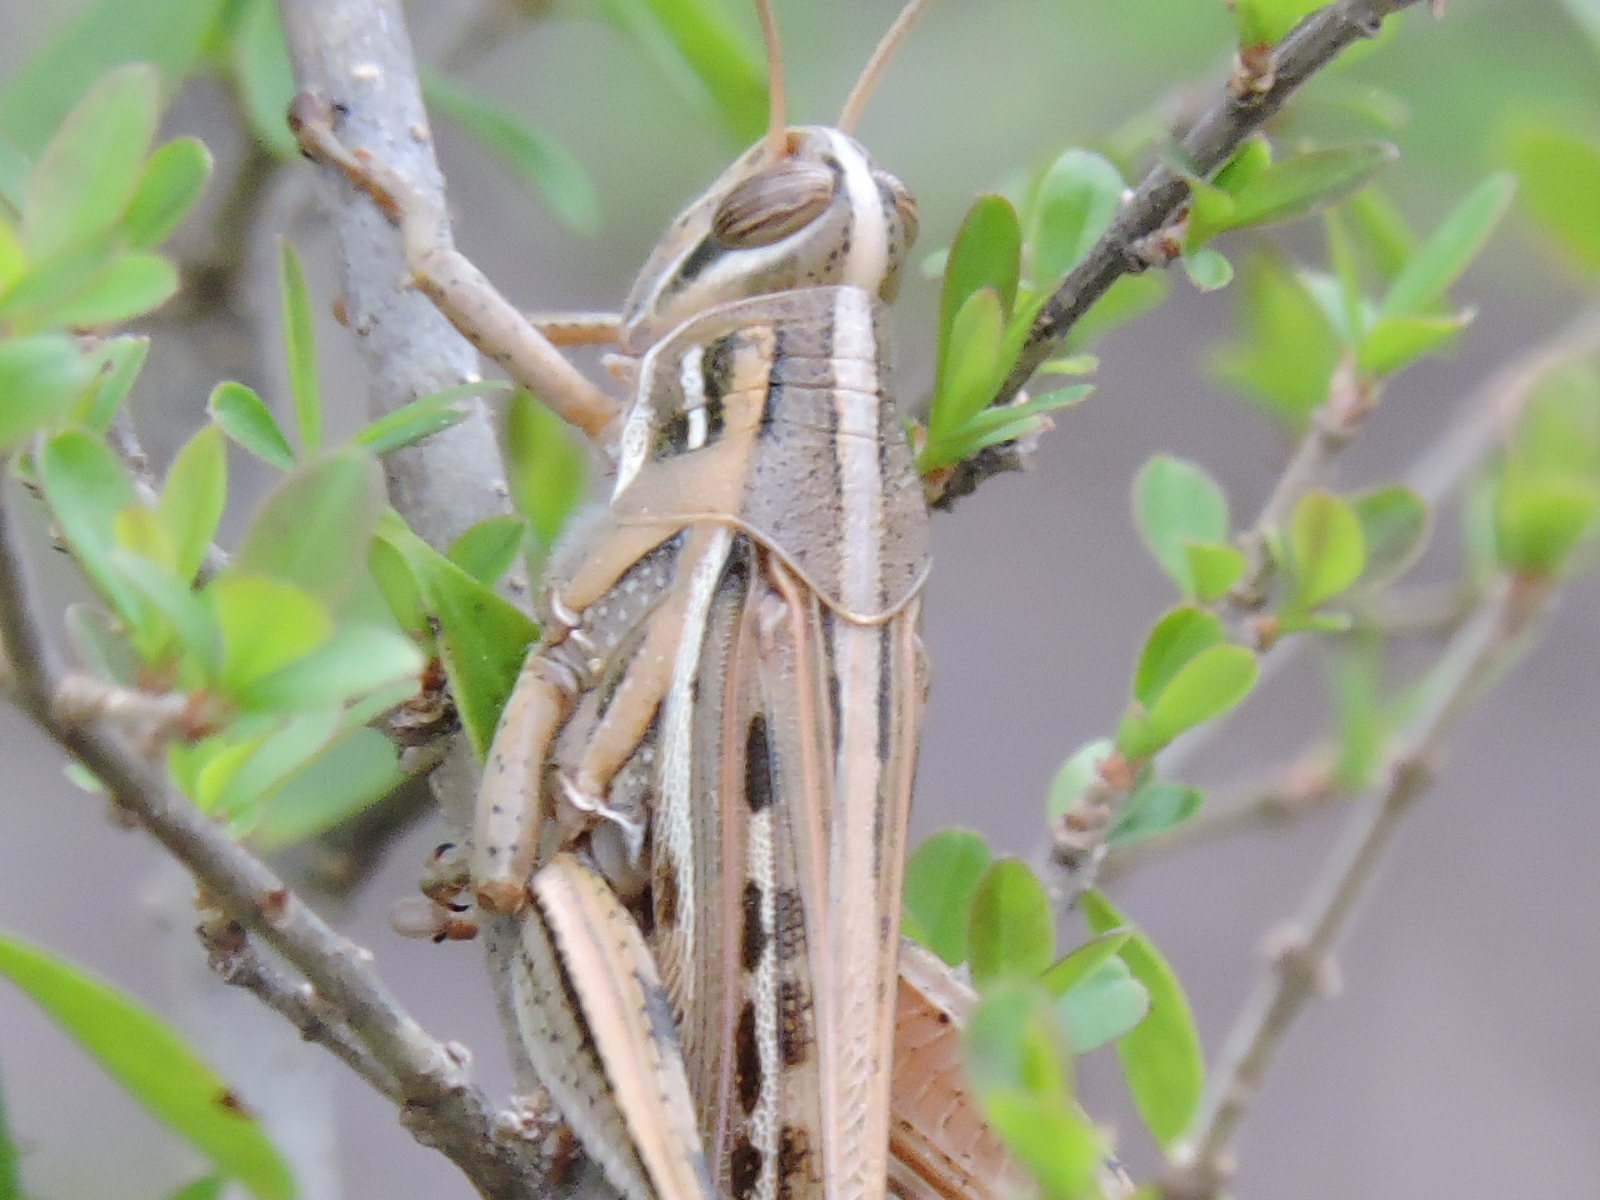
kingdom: Animalia
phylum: Arthropoda
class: Insecta
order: Orthoptera
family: Acrididae
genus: Schistocerca
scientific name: Schistocerca americana
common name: American bird locust
